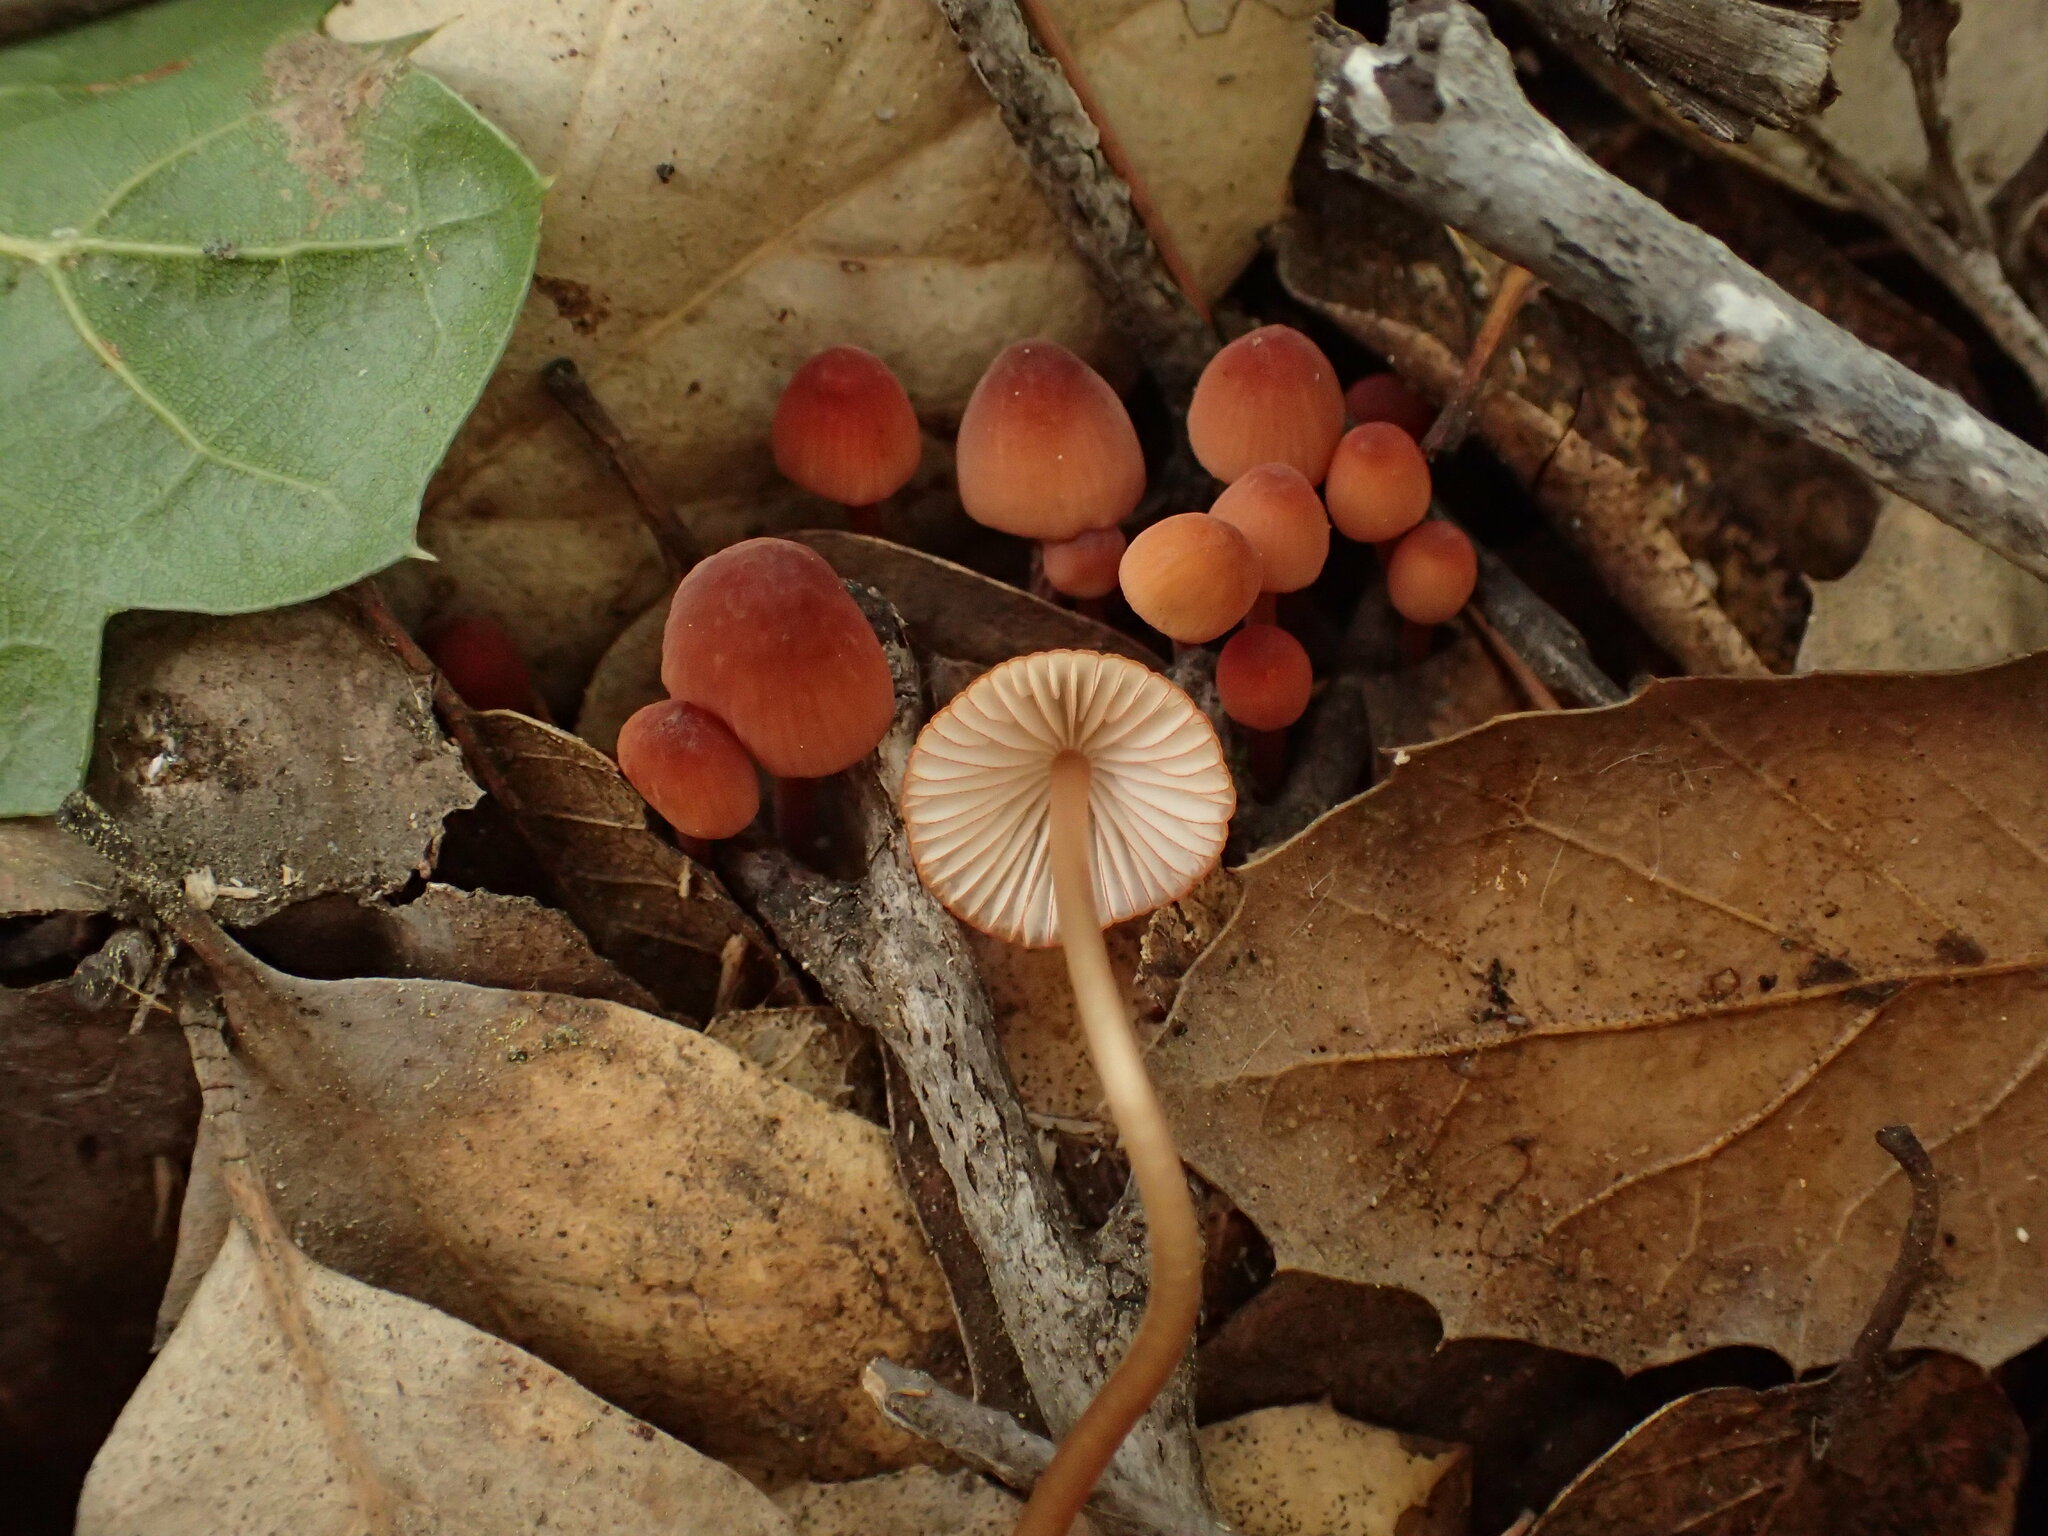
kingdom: Fungi
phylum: Basidiomycota
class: Agaricomycetes
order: Agaricales
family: Mycenaceae
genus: Mycena
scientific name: Mycena
